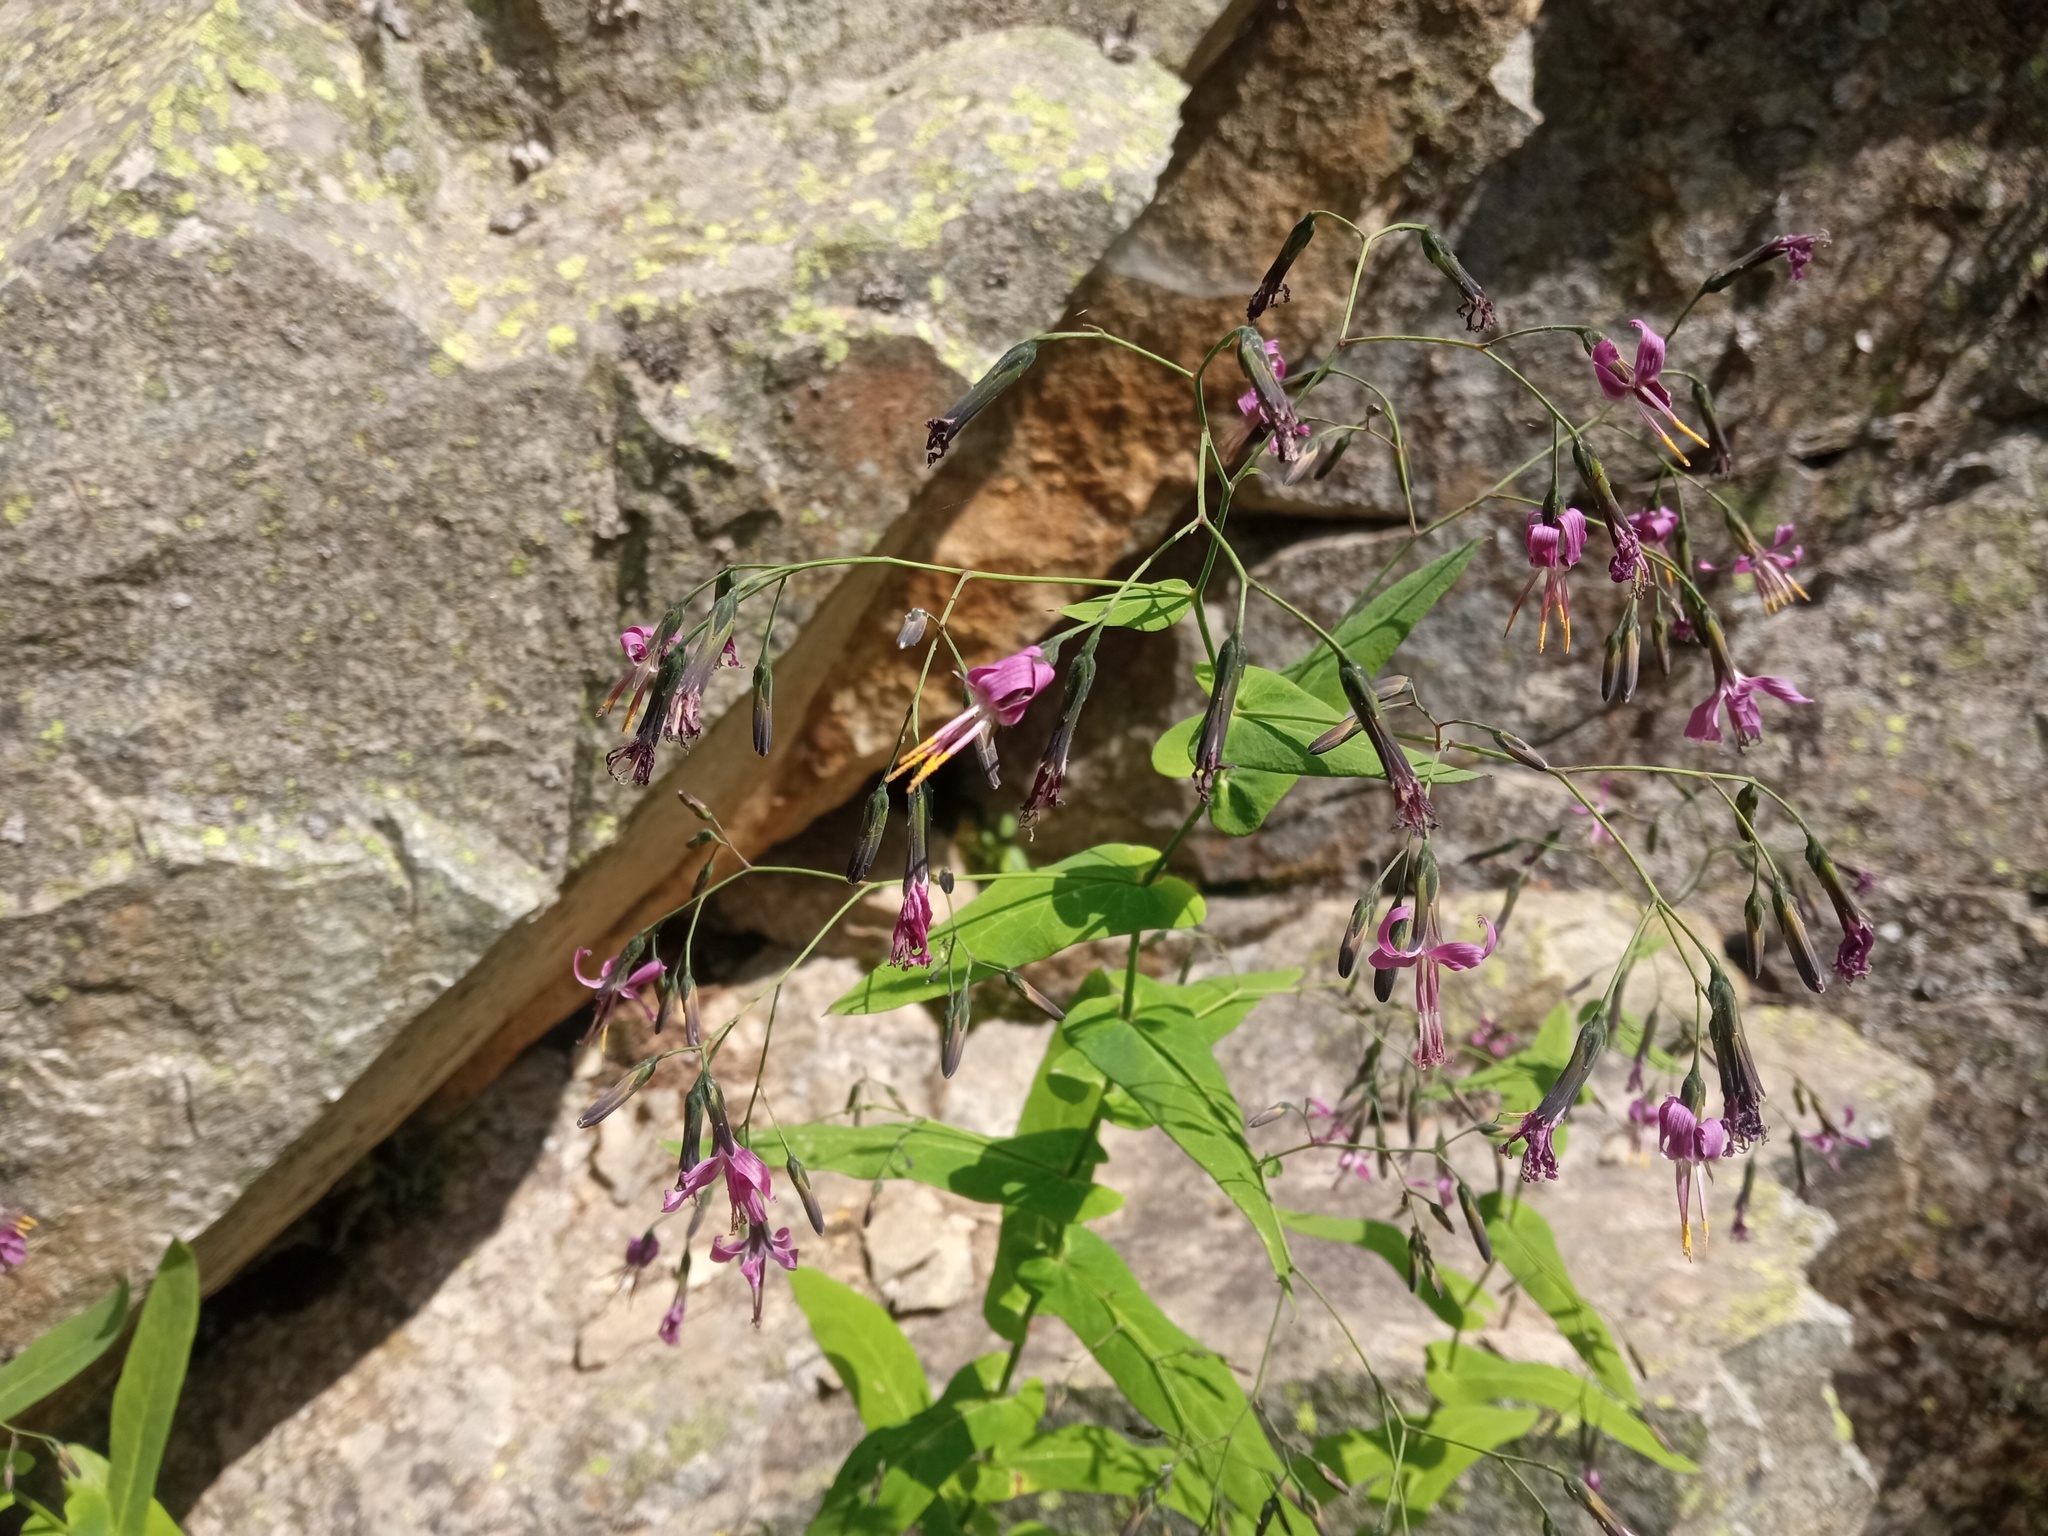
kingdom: Plantae
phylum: Tracheophyta
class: Magnoliopsida
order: Asterales
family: Asteraceae
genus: Prenanthes
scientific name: Prenanthes purpurea
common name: Purple lettuce
